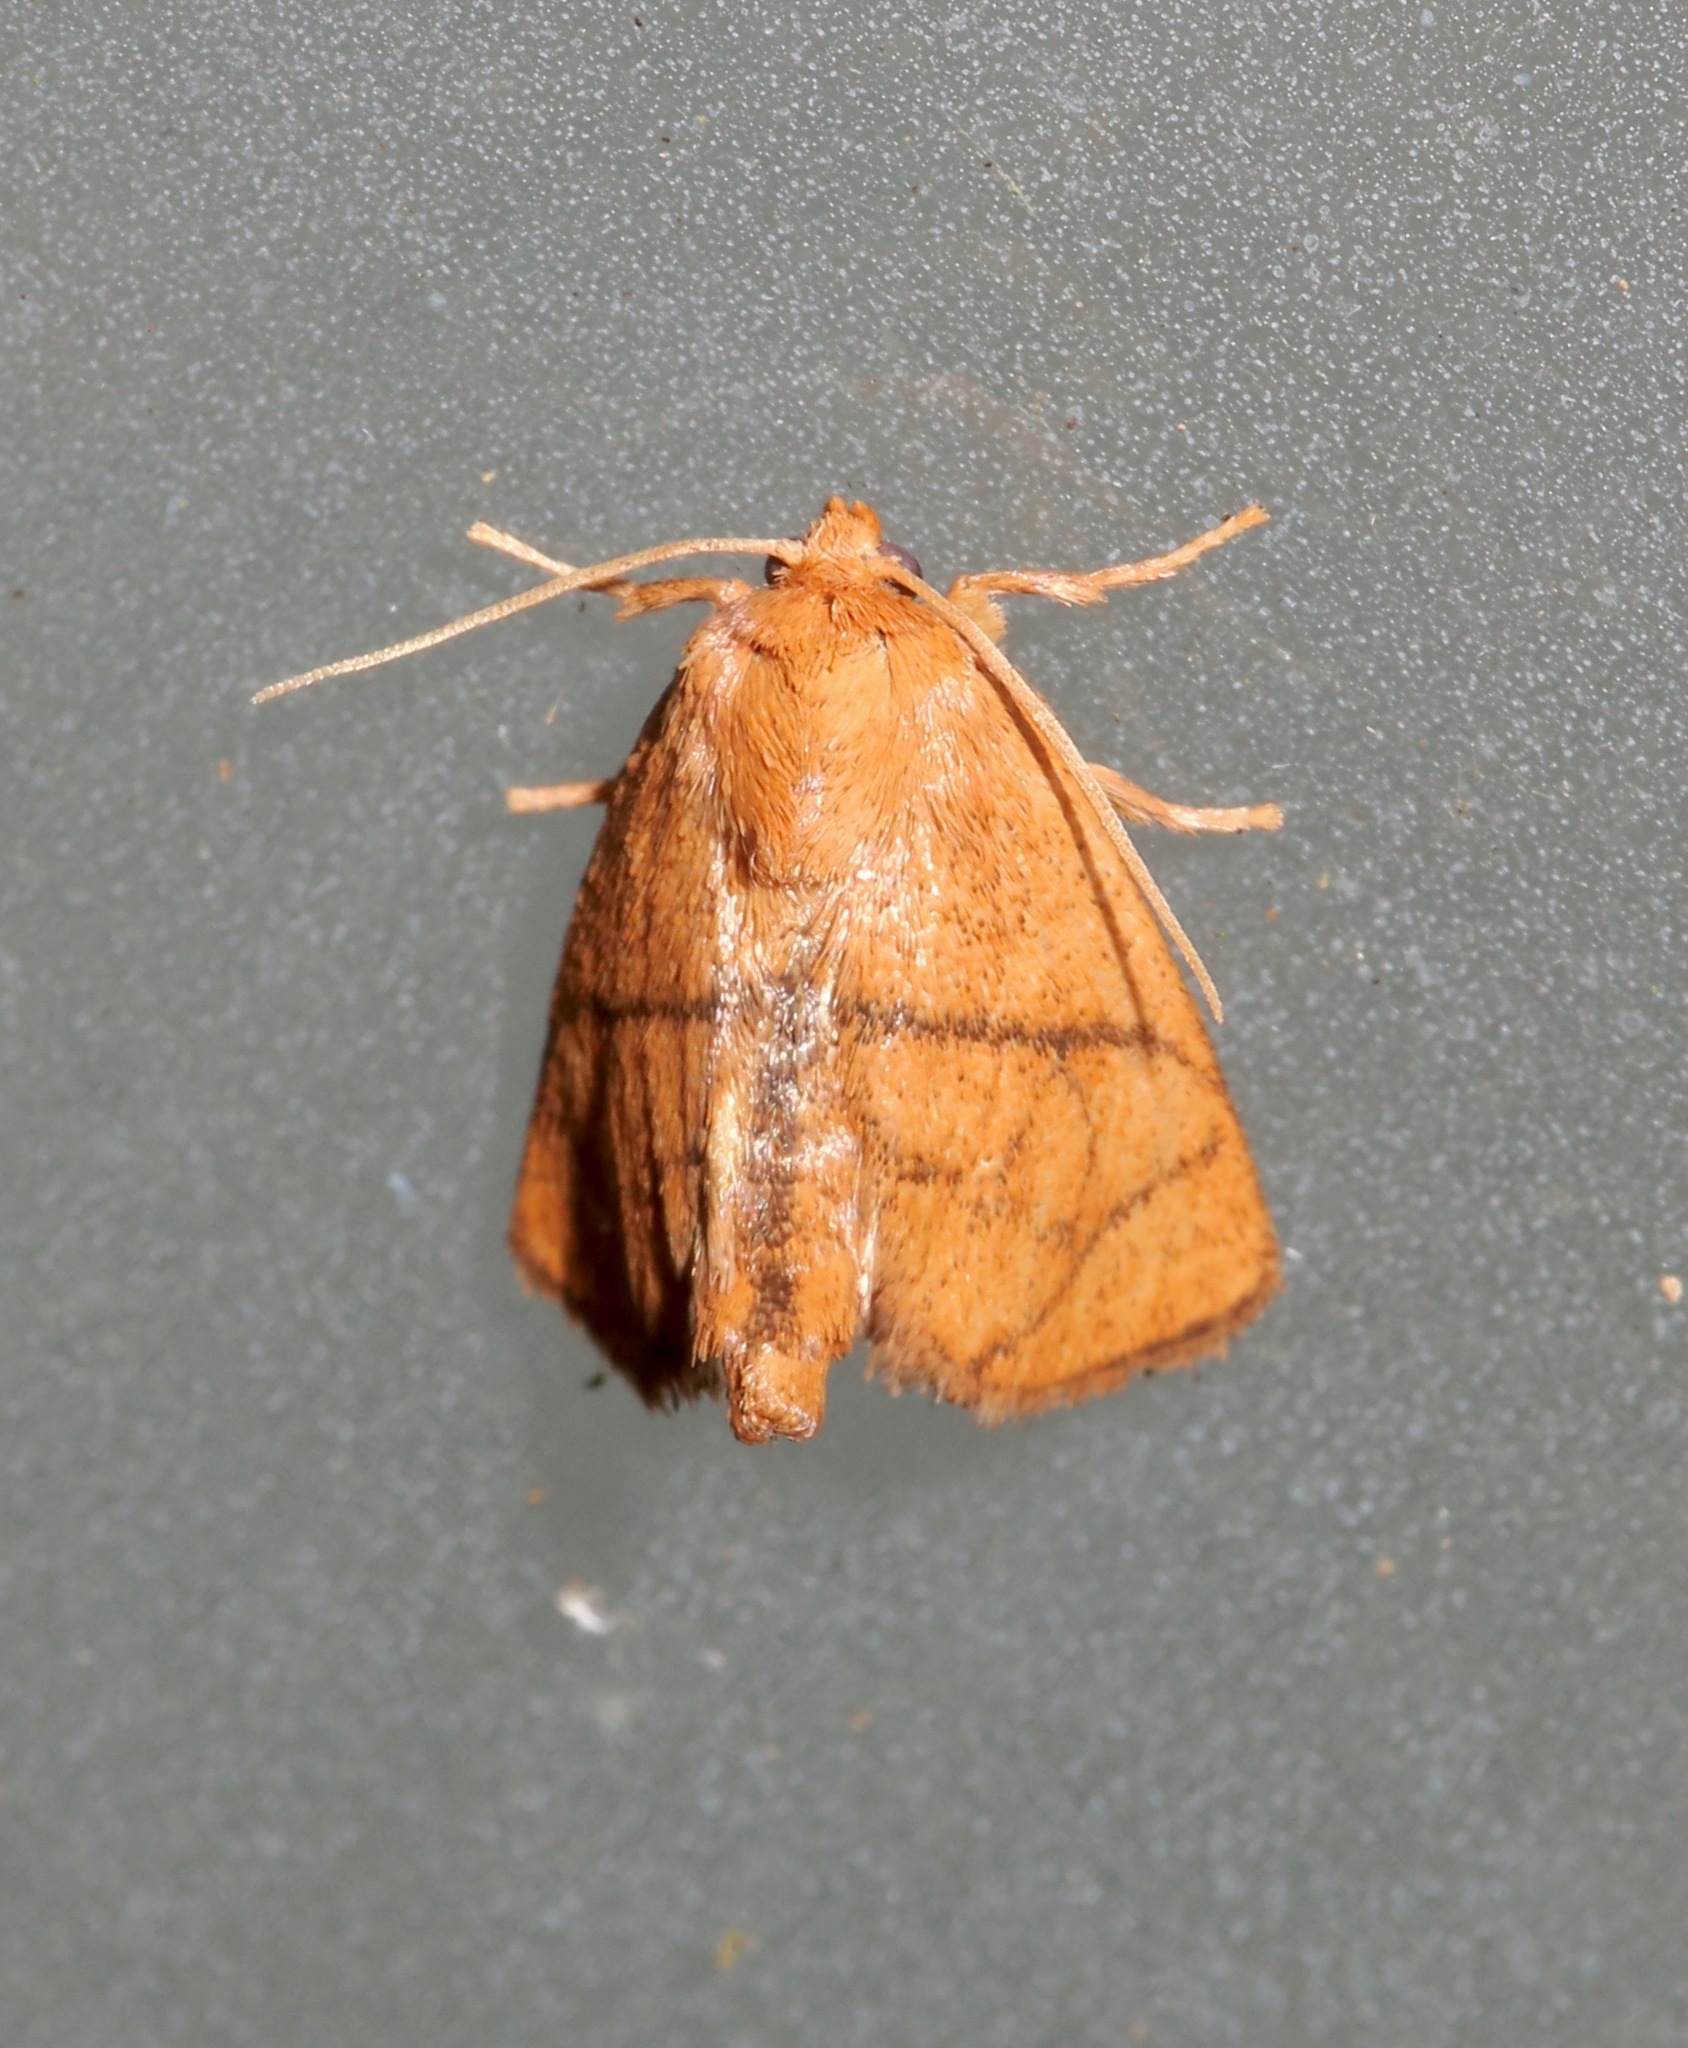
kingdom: Animalia
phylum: Arthropoda
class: Insecta
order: Lepidoptera
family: Limacodidae
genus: Apoda
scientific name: Apoda y-inversa
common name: Yellow-collared slug moth
